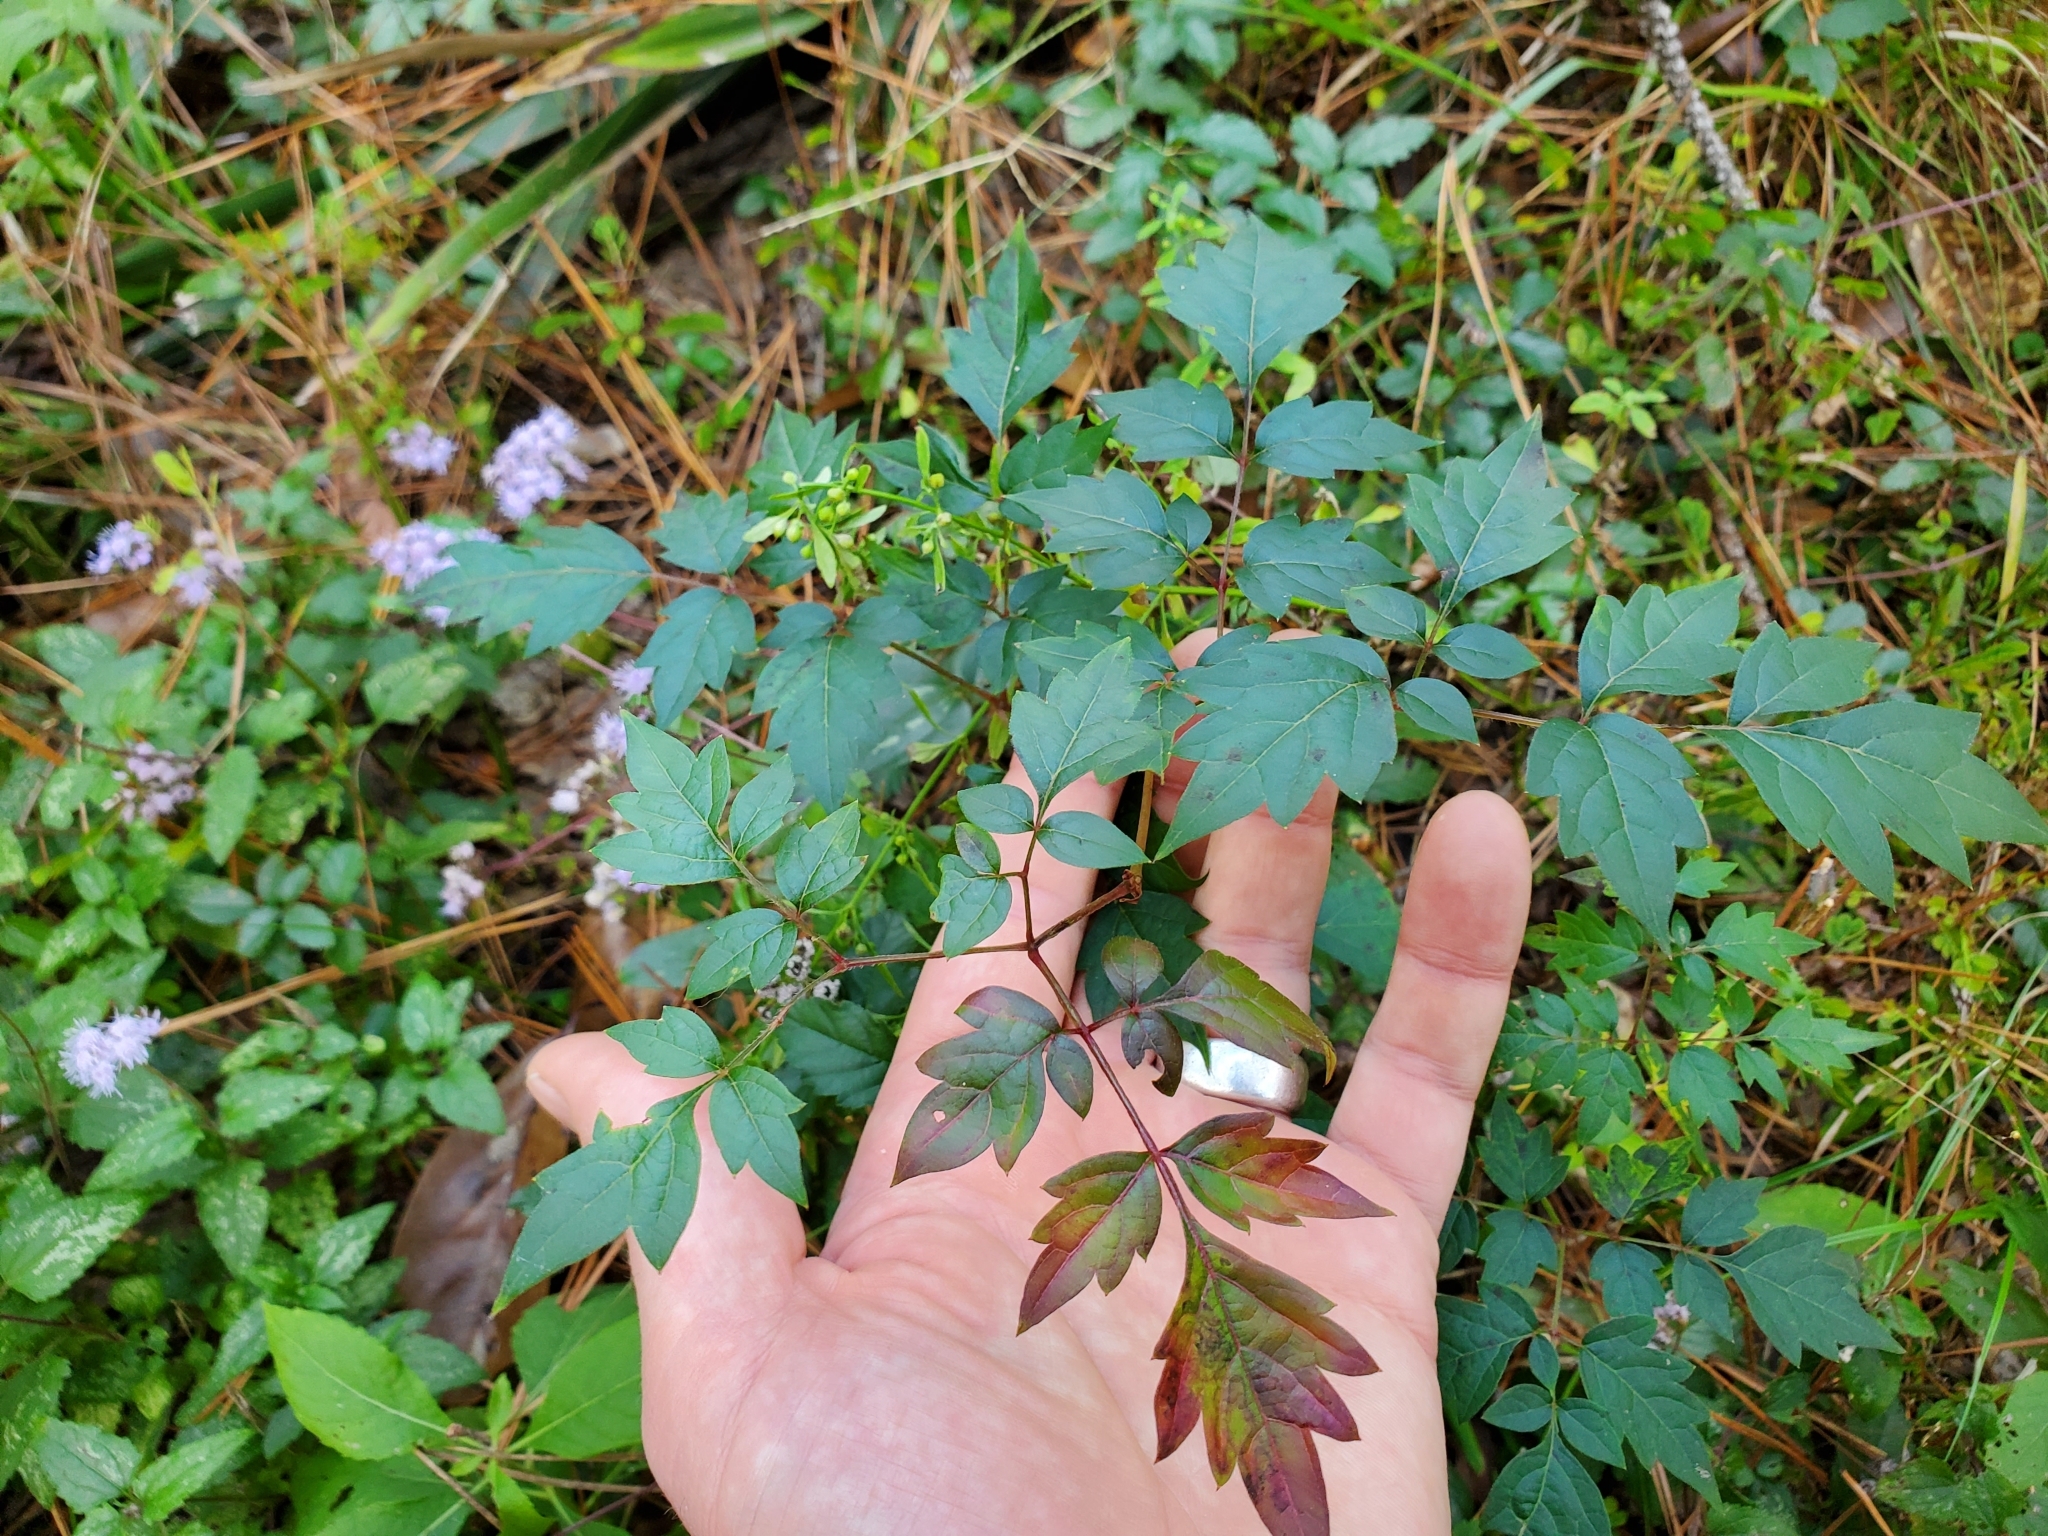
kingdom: Plantae
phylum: Tracheophyta
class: Magnoliopsida
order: Vitales
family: Vitaceae
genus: Nekemias
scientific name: Nekemias arborea
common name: Peppervine
